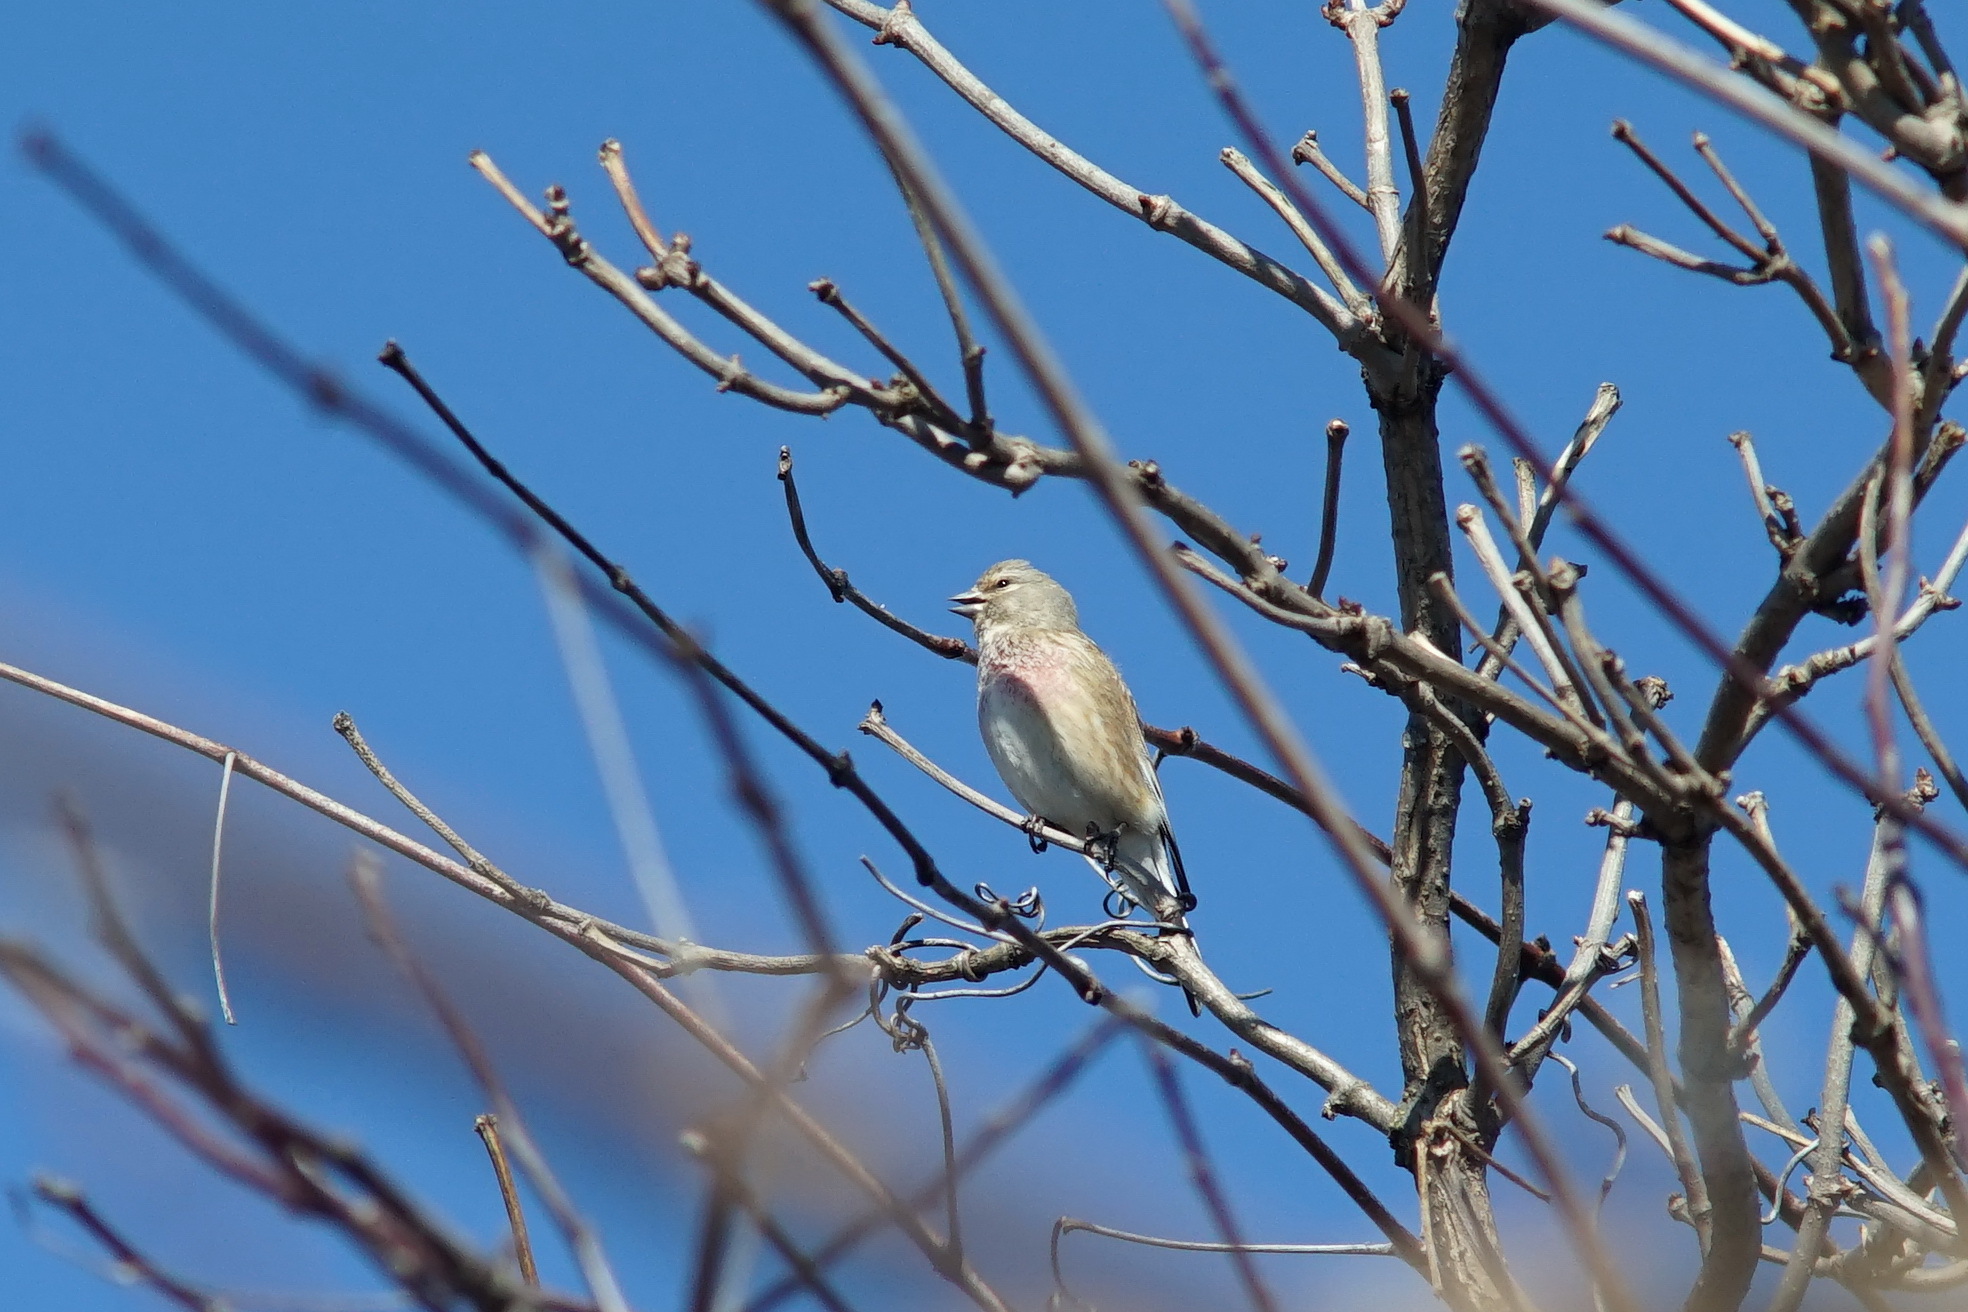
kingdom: Animalia
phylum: Chordata
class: Aves
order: Passeriformes
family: Fringillidae
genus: Linaria
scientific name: Linaria cannabina
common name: Common linnet
